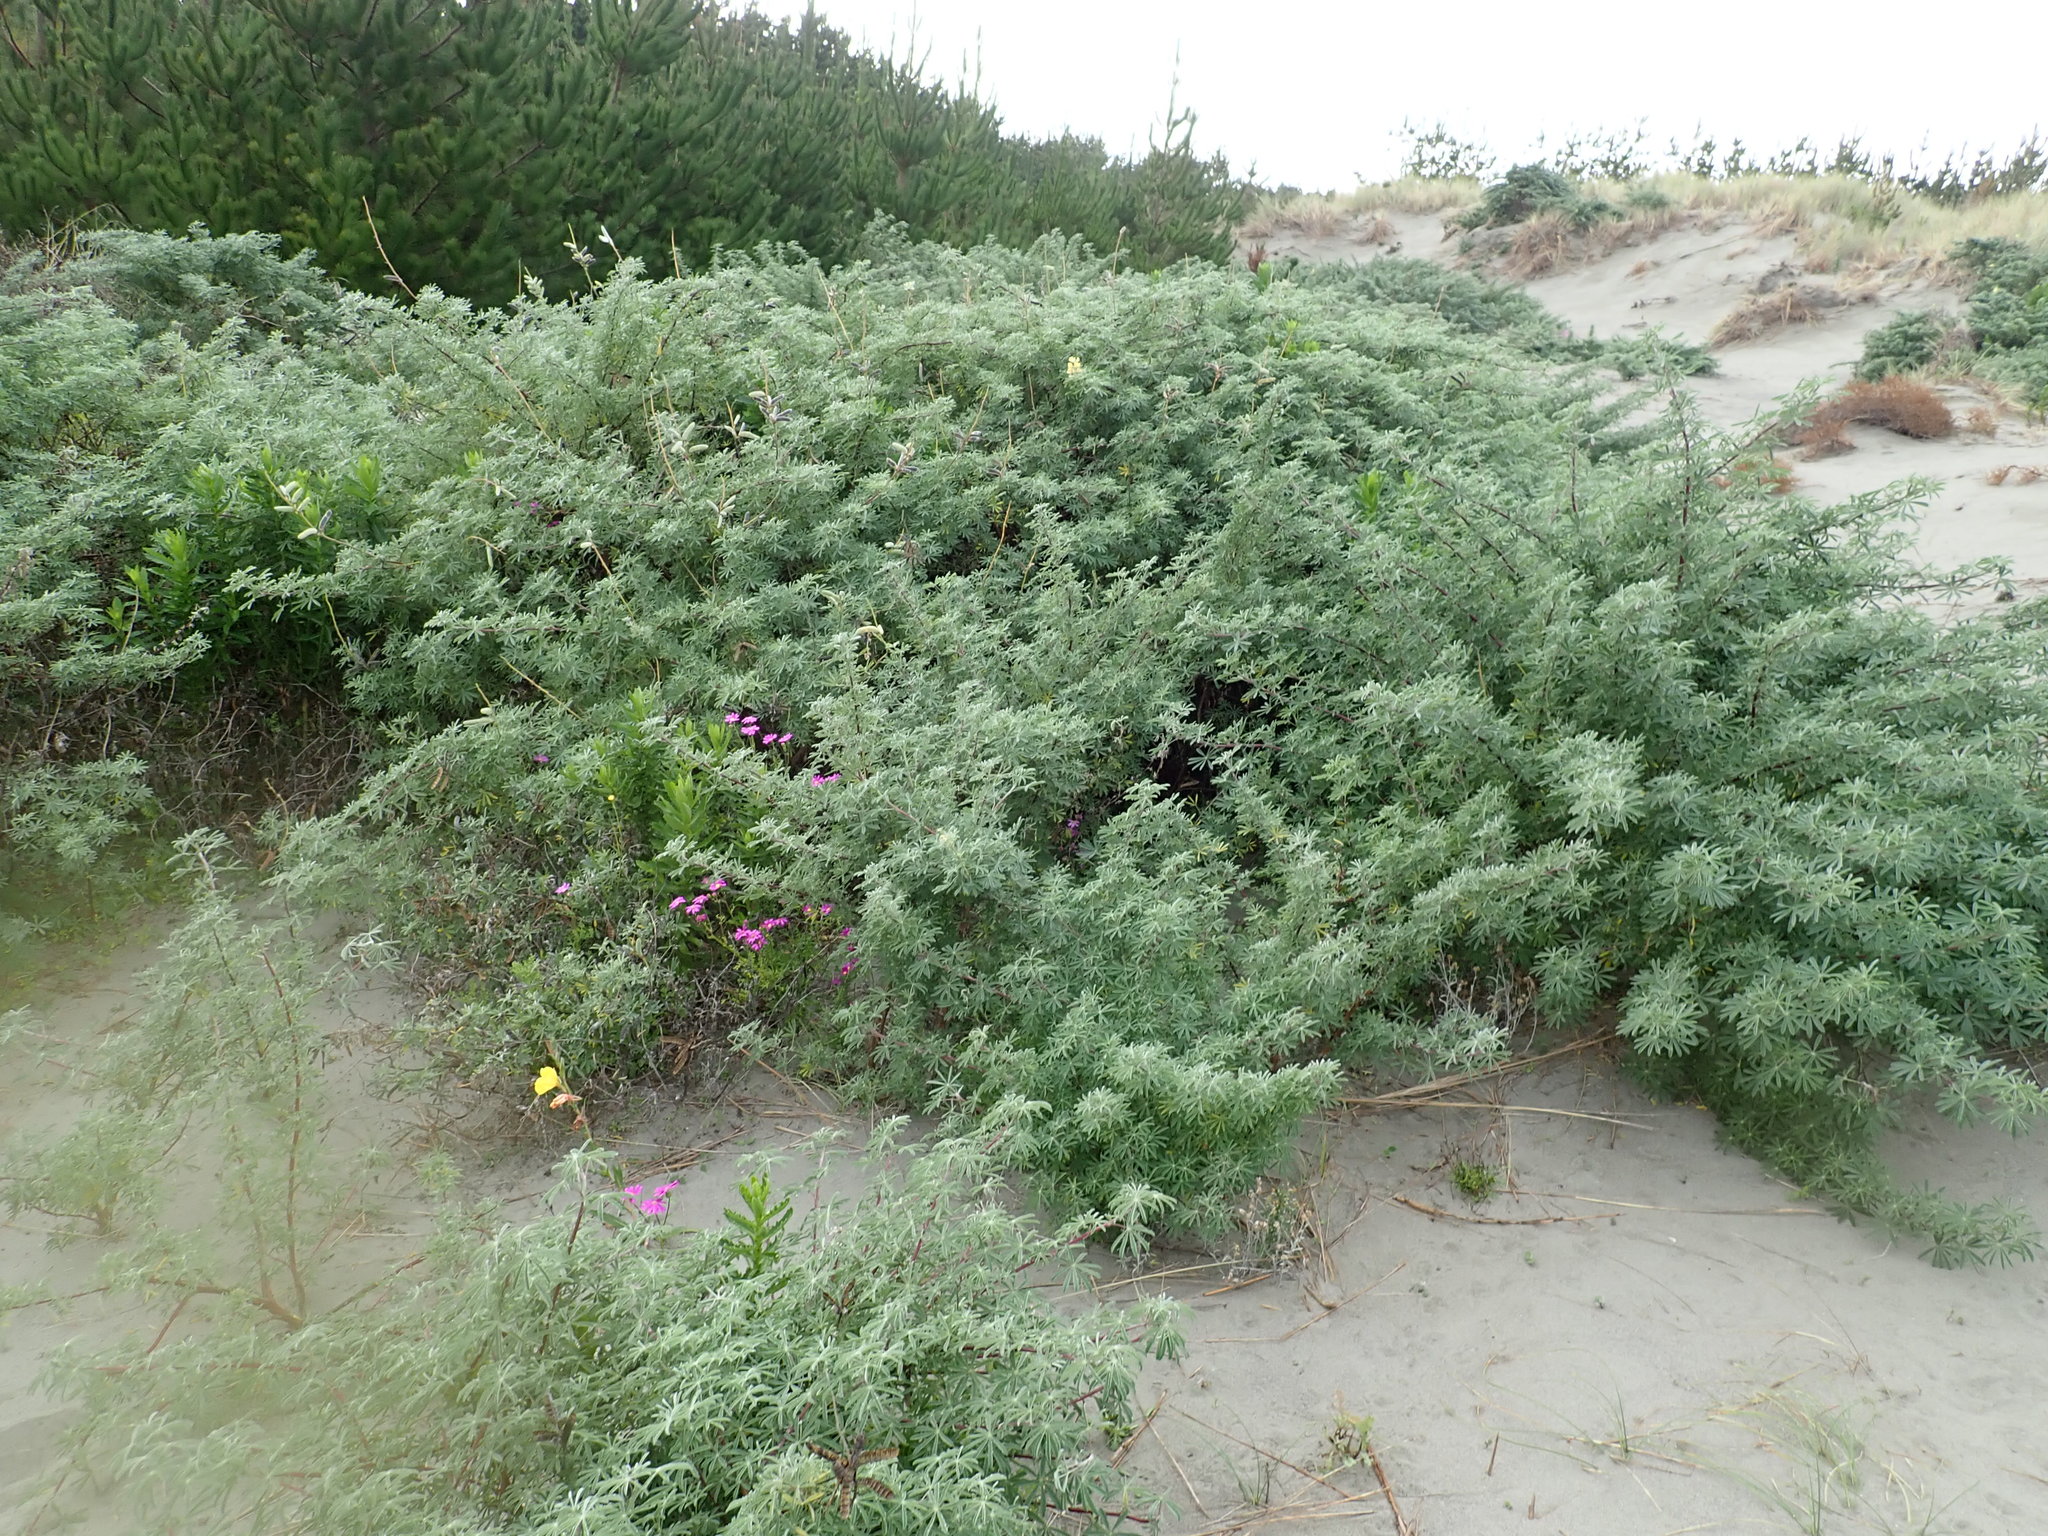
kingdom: Plantae
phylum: Tracheophyta
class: Magnoliopsida
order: Fabales
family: Fabaceae
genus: Lupinus
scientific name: Lupinus arboreus
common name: Yellow bush lupine
